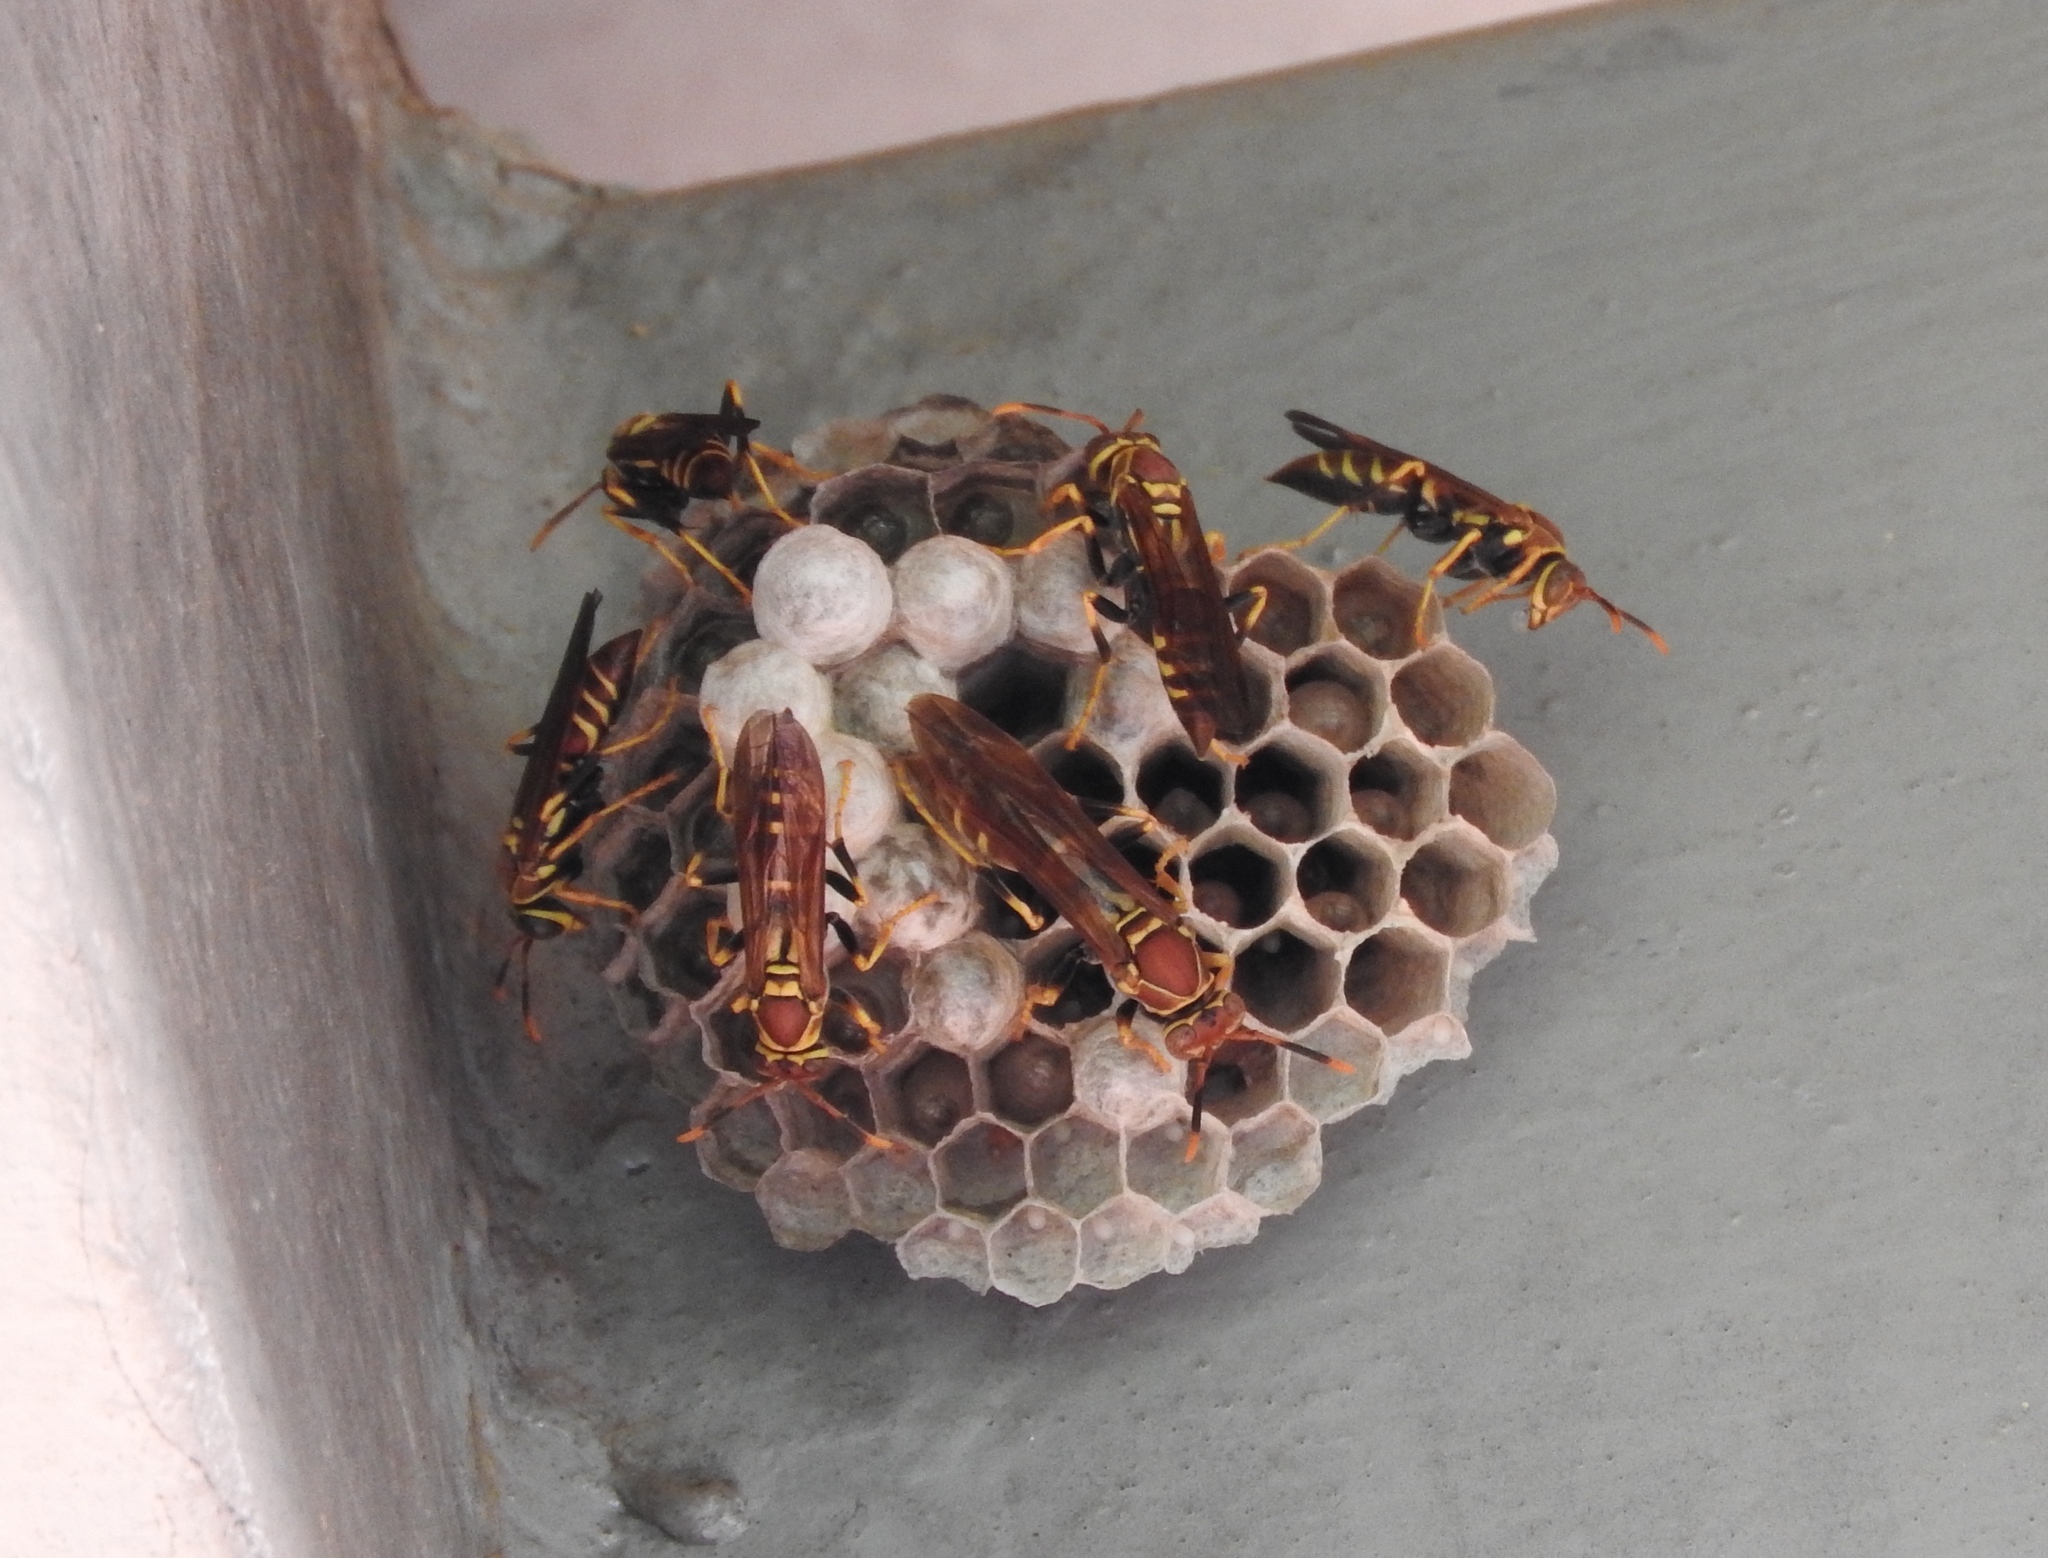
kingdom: Animalia
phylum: Arthropoda
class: Insecta
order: Hymenoptera
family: Eumenidae
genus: Polistes
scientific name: Polistes instabilis
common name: Unstable paper wasp
